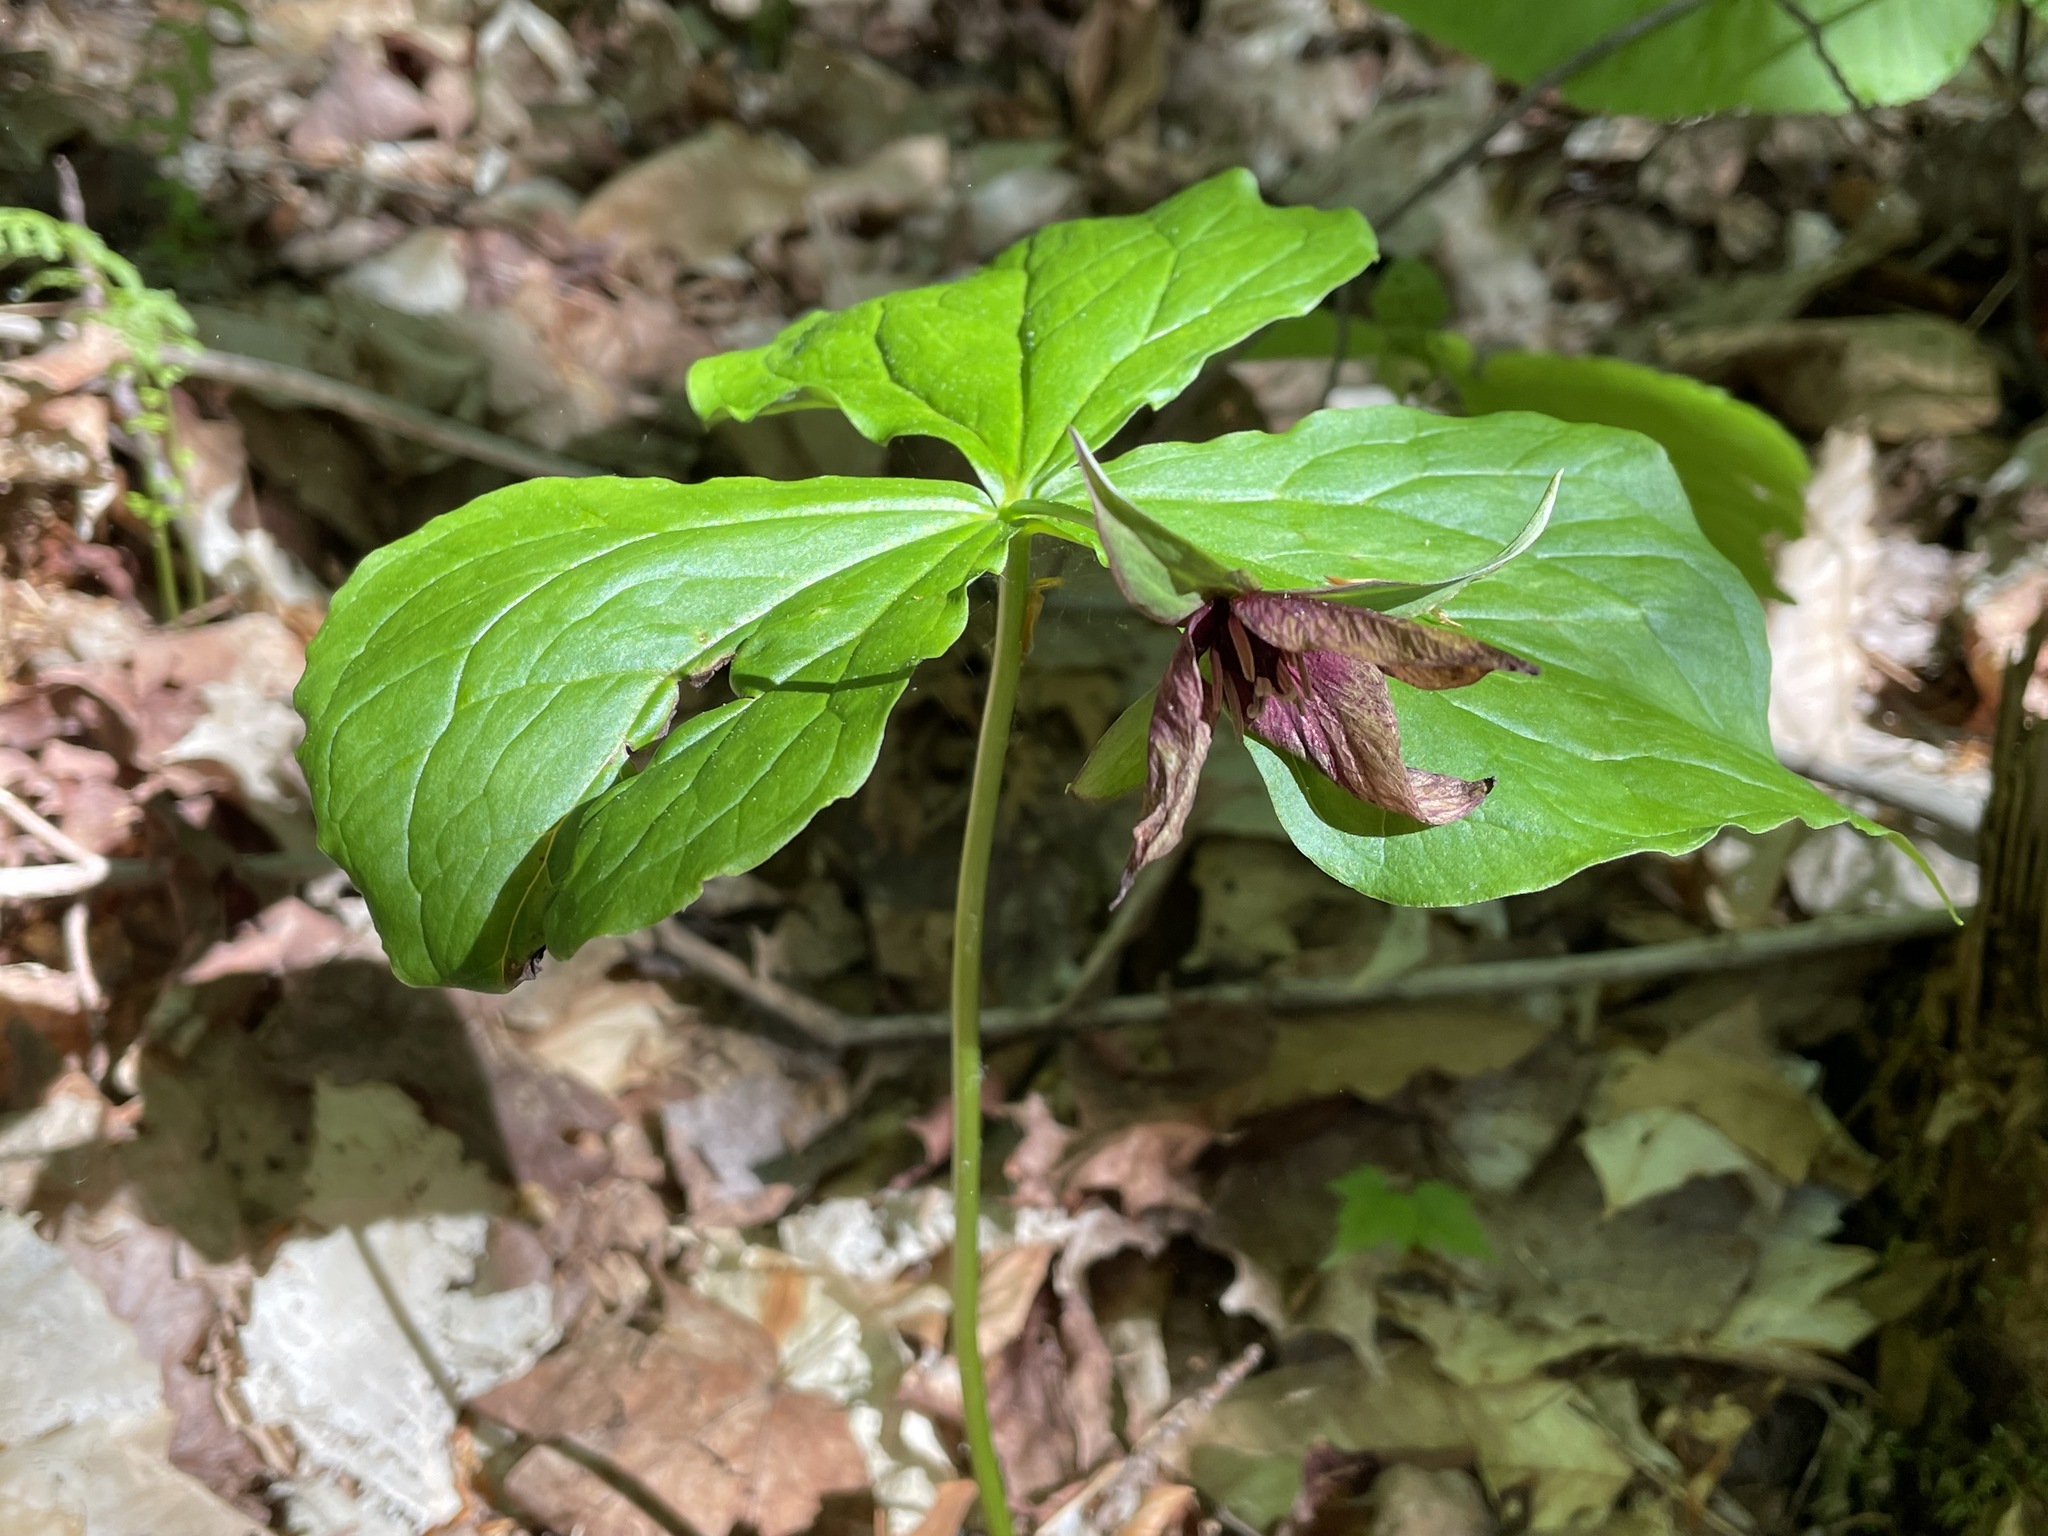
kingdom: Plantae
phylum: Tracheophyta
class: Liliopsida
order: Liliales
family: Melanthiaceae
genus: Trillium
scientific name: Trillium erectum
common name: Purple trillium
